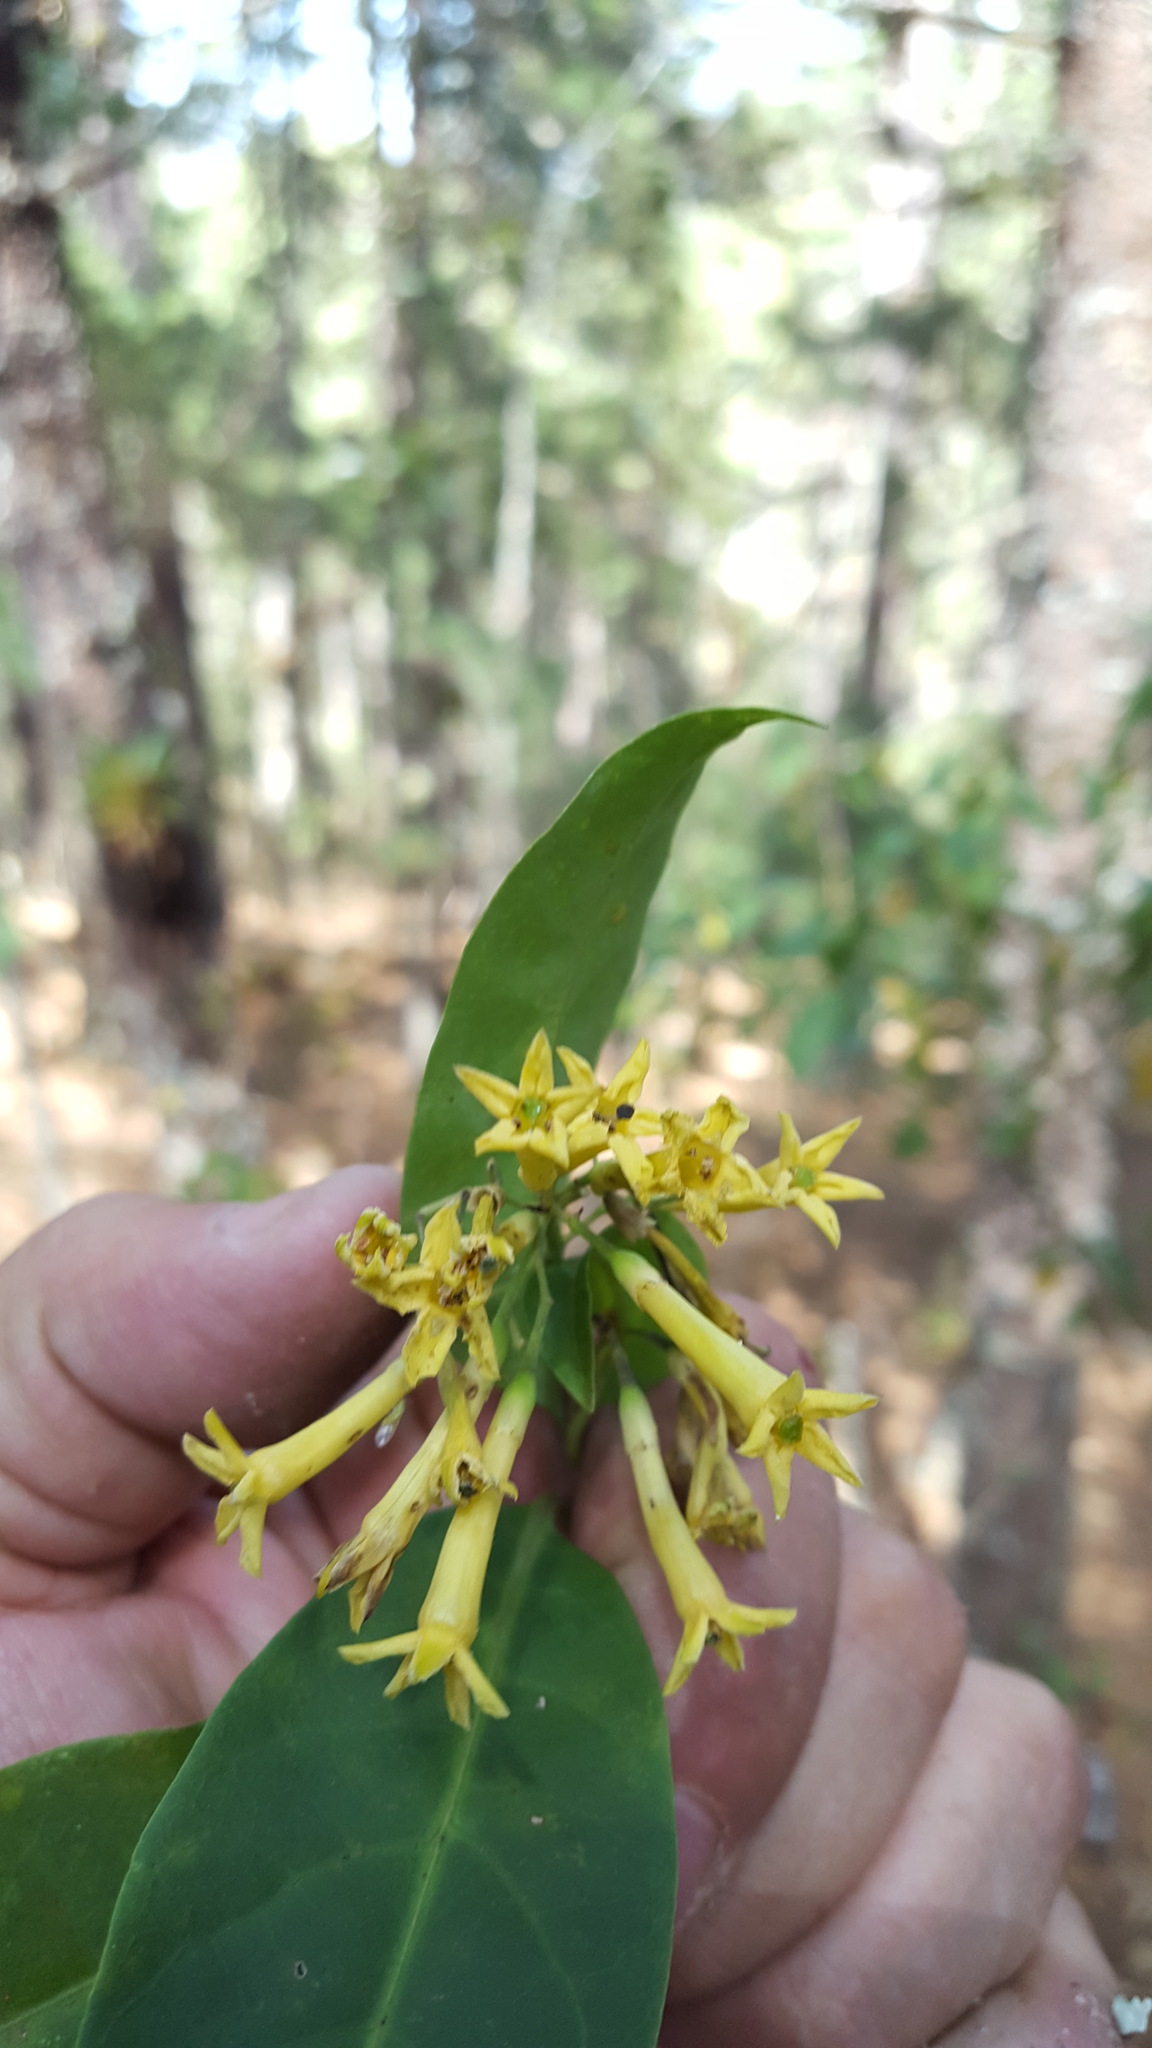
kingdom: Plantae
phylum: Tracheophyta
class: Magnoliopsida
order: Solanales
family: Solanaceae
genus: Cestrum
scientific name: Cestrum aurantiacum
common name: Orange cestrum
